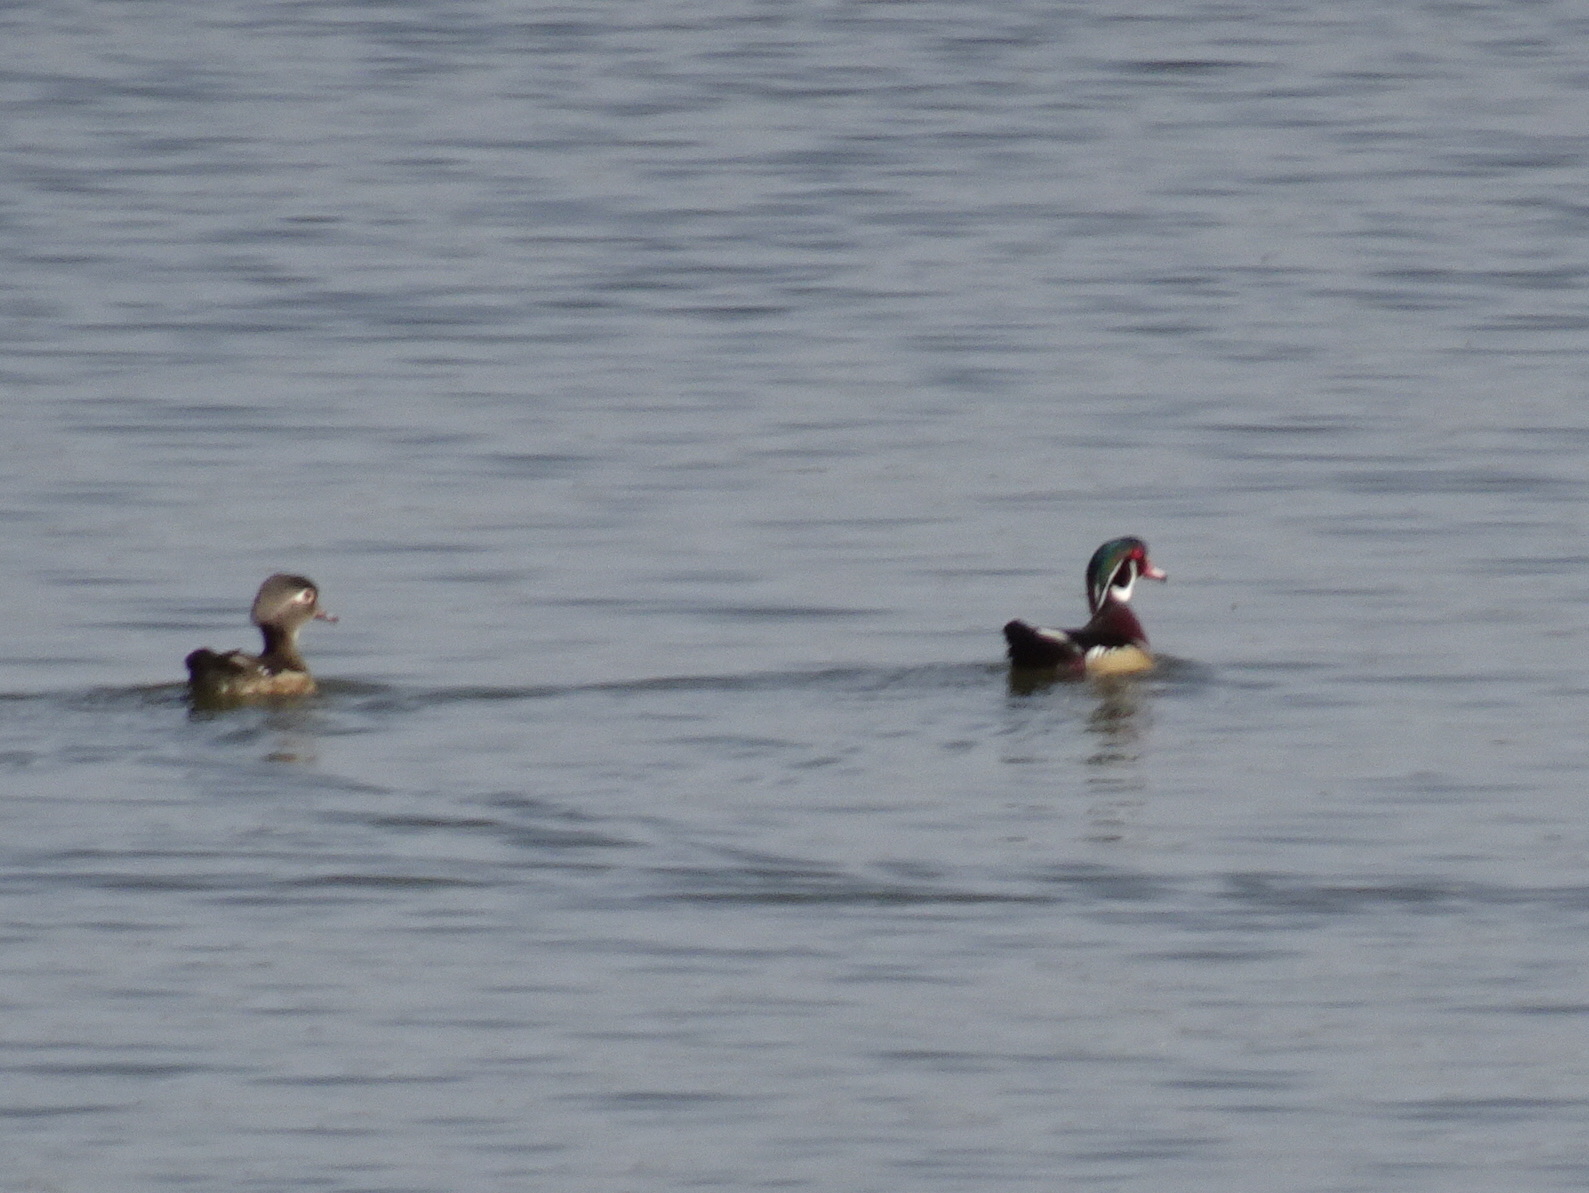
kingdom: Animalia
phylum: Chordata
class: Aves
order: Anseriformes
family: Anatidae
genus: Aix
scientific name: Aix sponsa
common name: Wood duck
